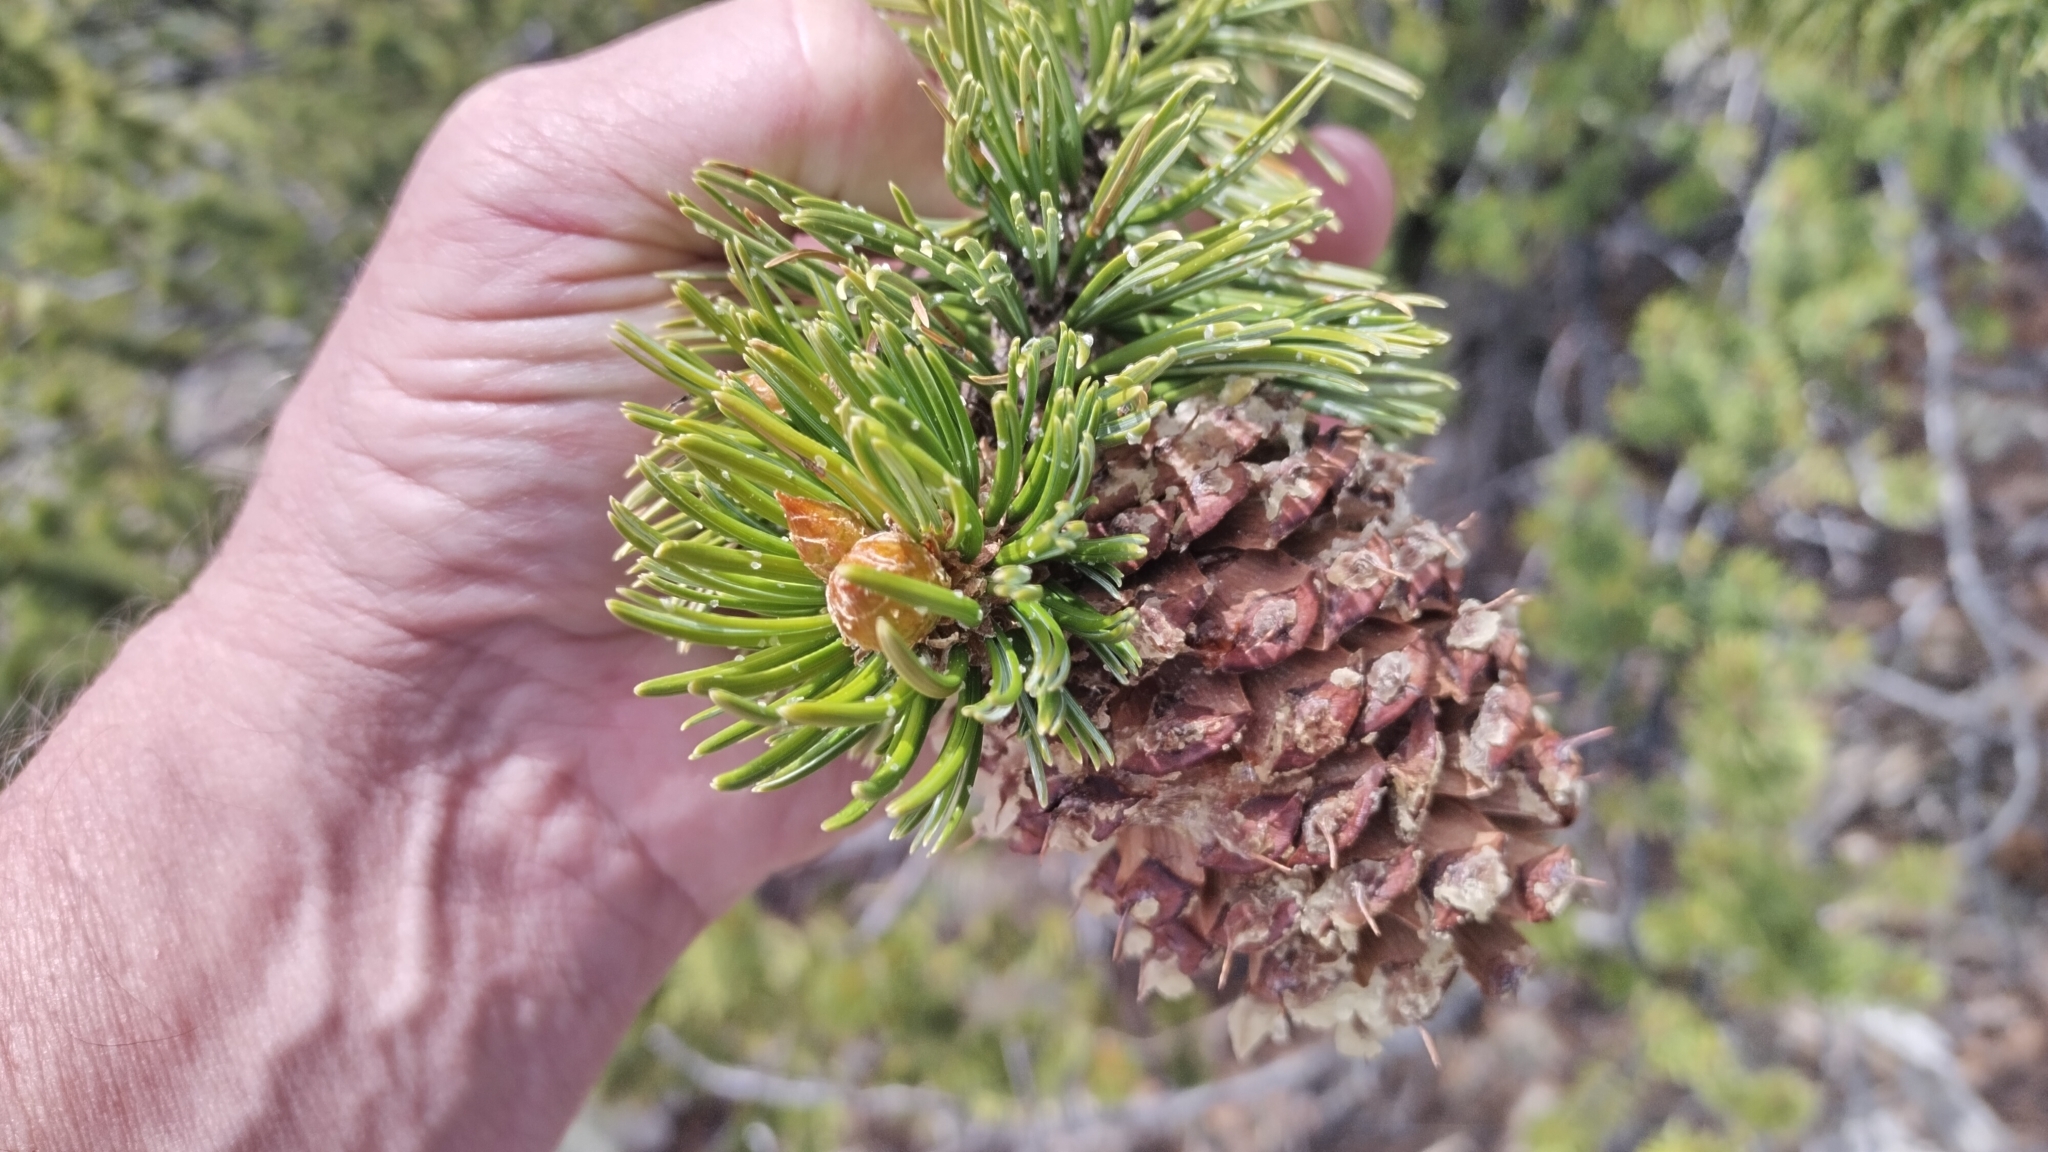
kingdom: Plantae
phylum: Tracheophyta
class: Pinopsida
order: Pinales
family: Pinaceae
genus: Pinus
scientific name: Pinus aristata
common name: Colorado bristlecone pine
